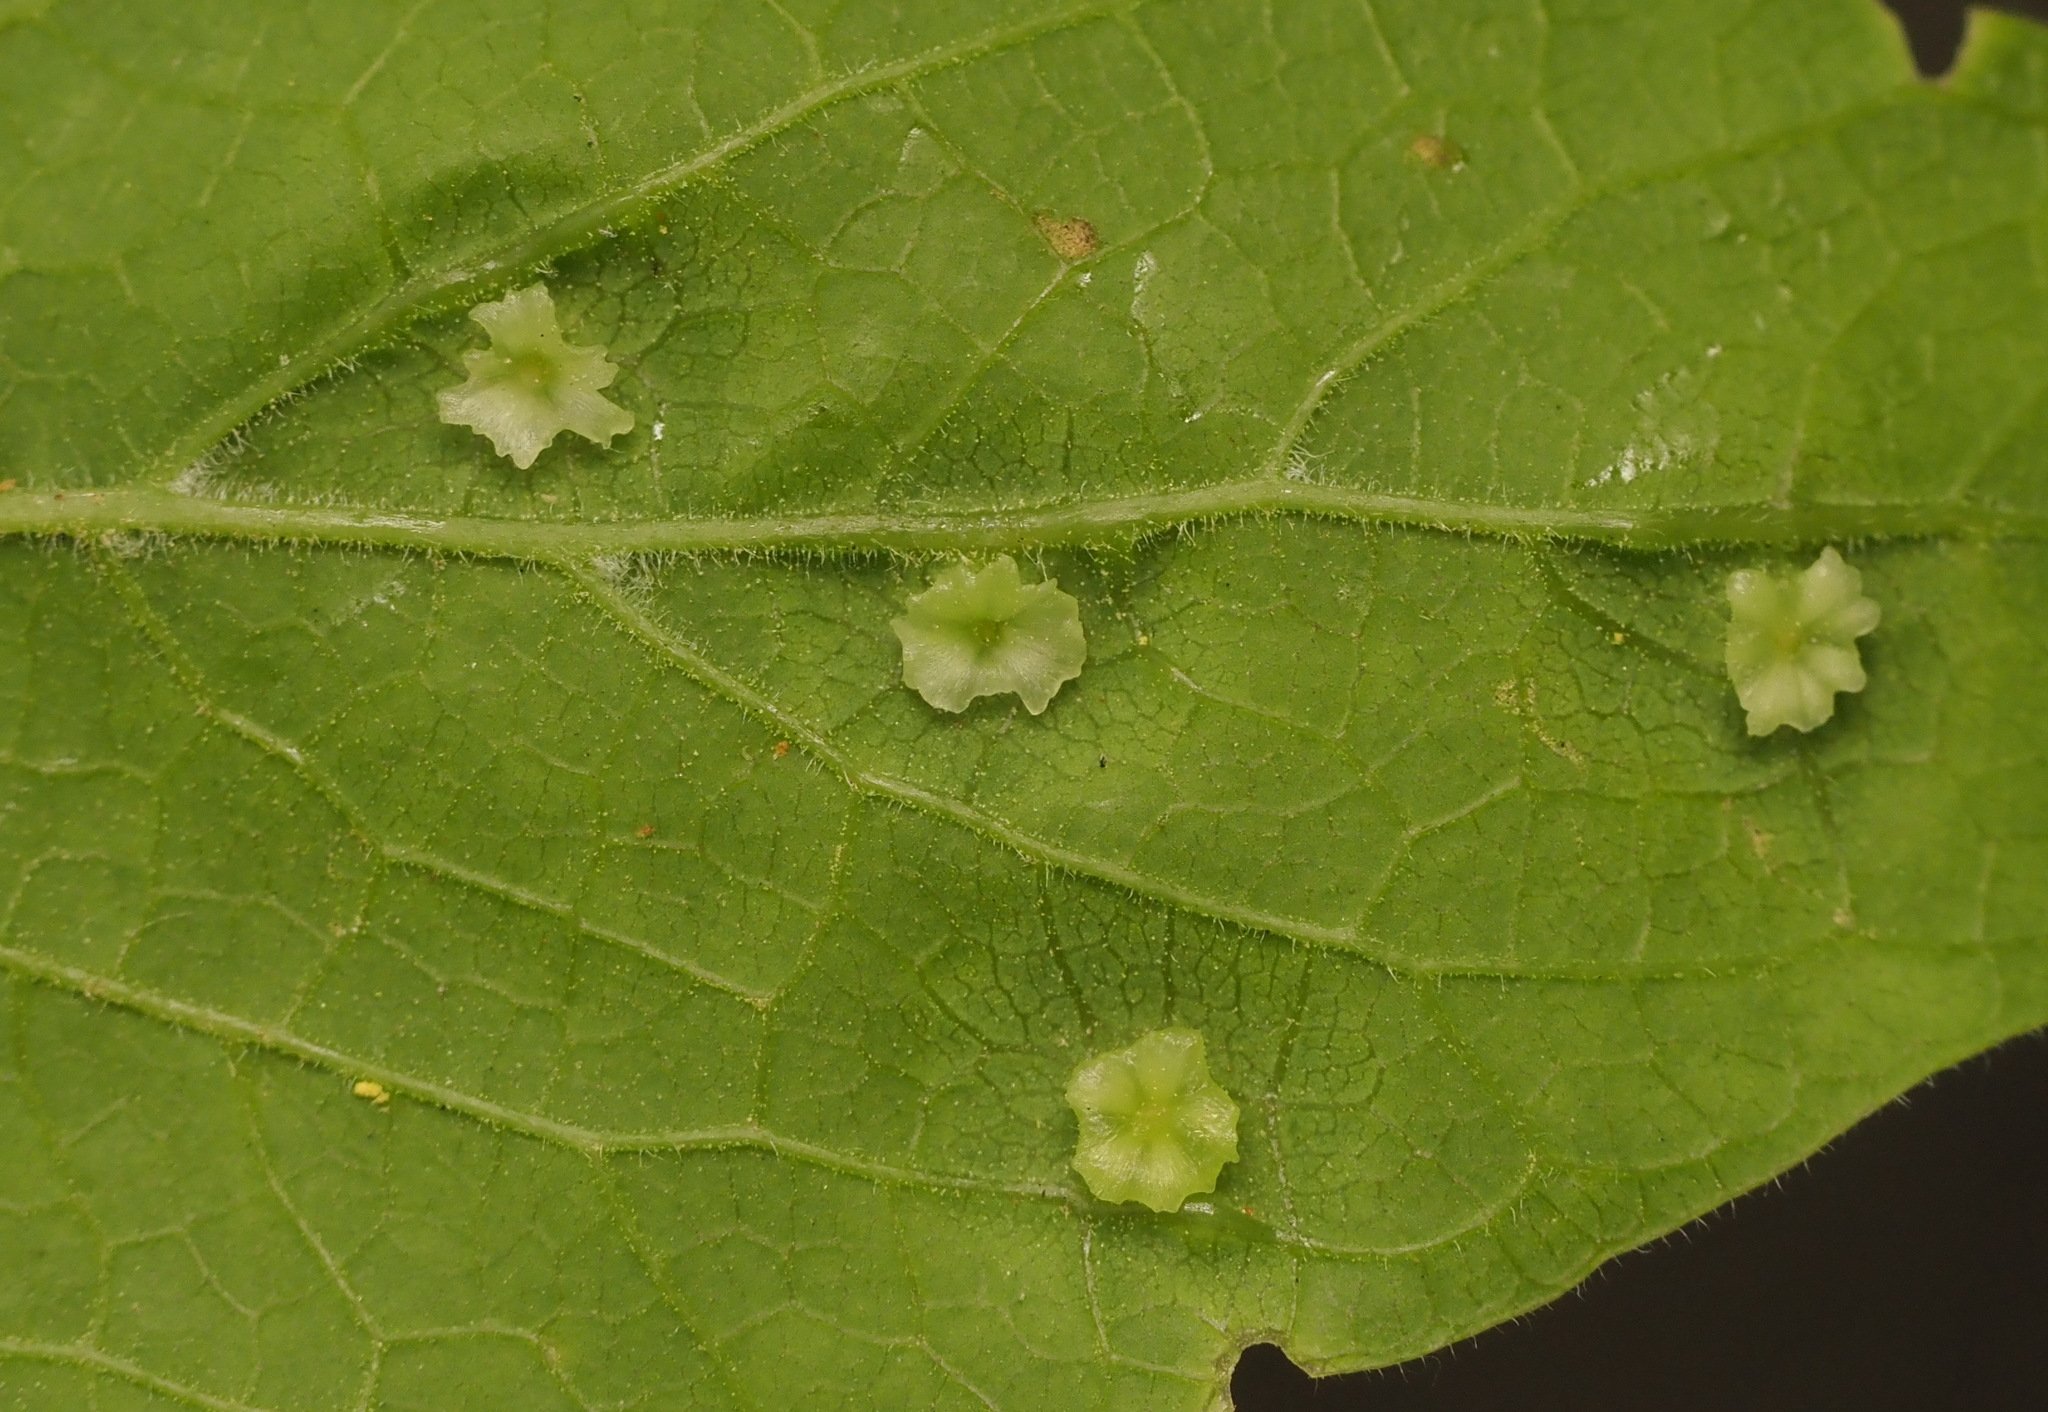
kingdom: Animalia
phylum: Arthropoda
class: Insecta
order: Hemiptera
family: Aphalaridae
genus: Pachypsylla
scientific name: Pachypsylla celtidisasterisca
